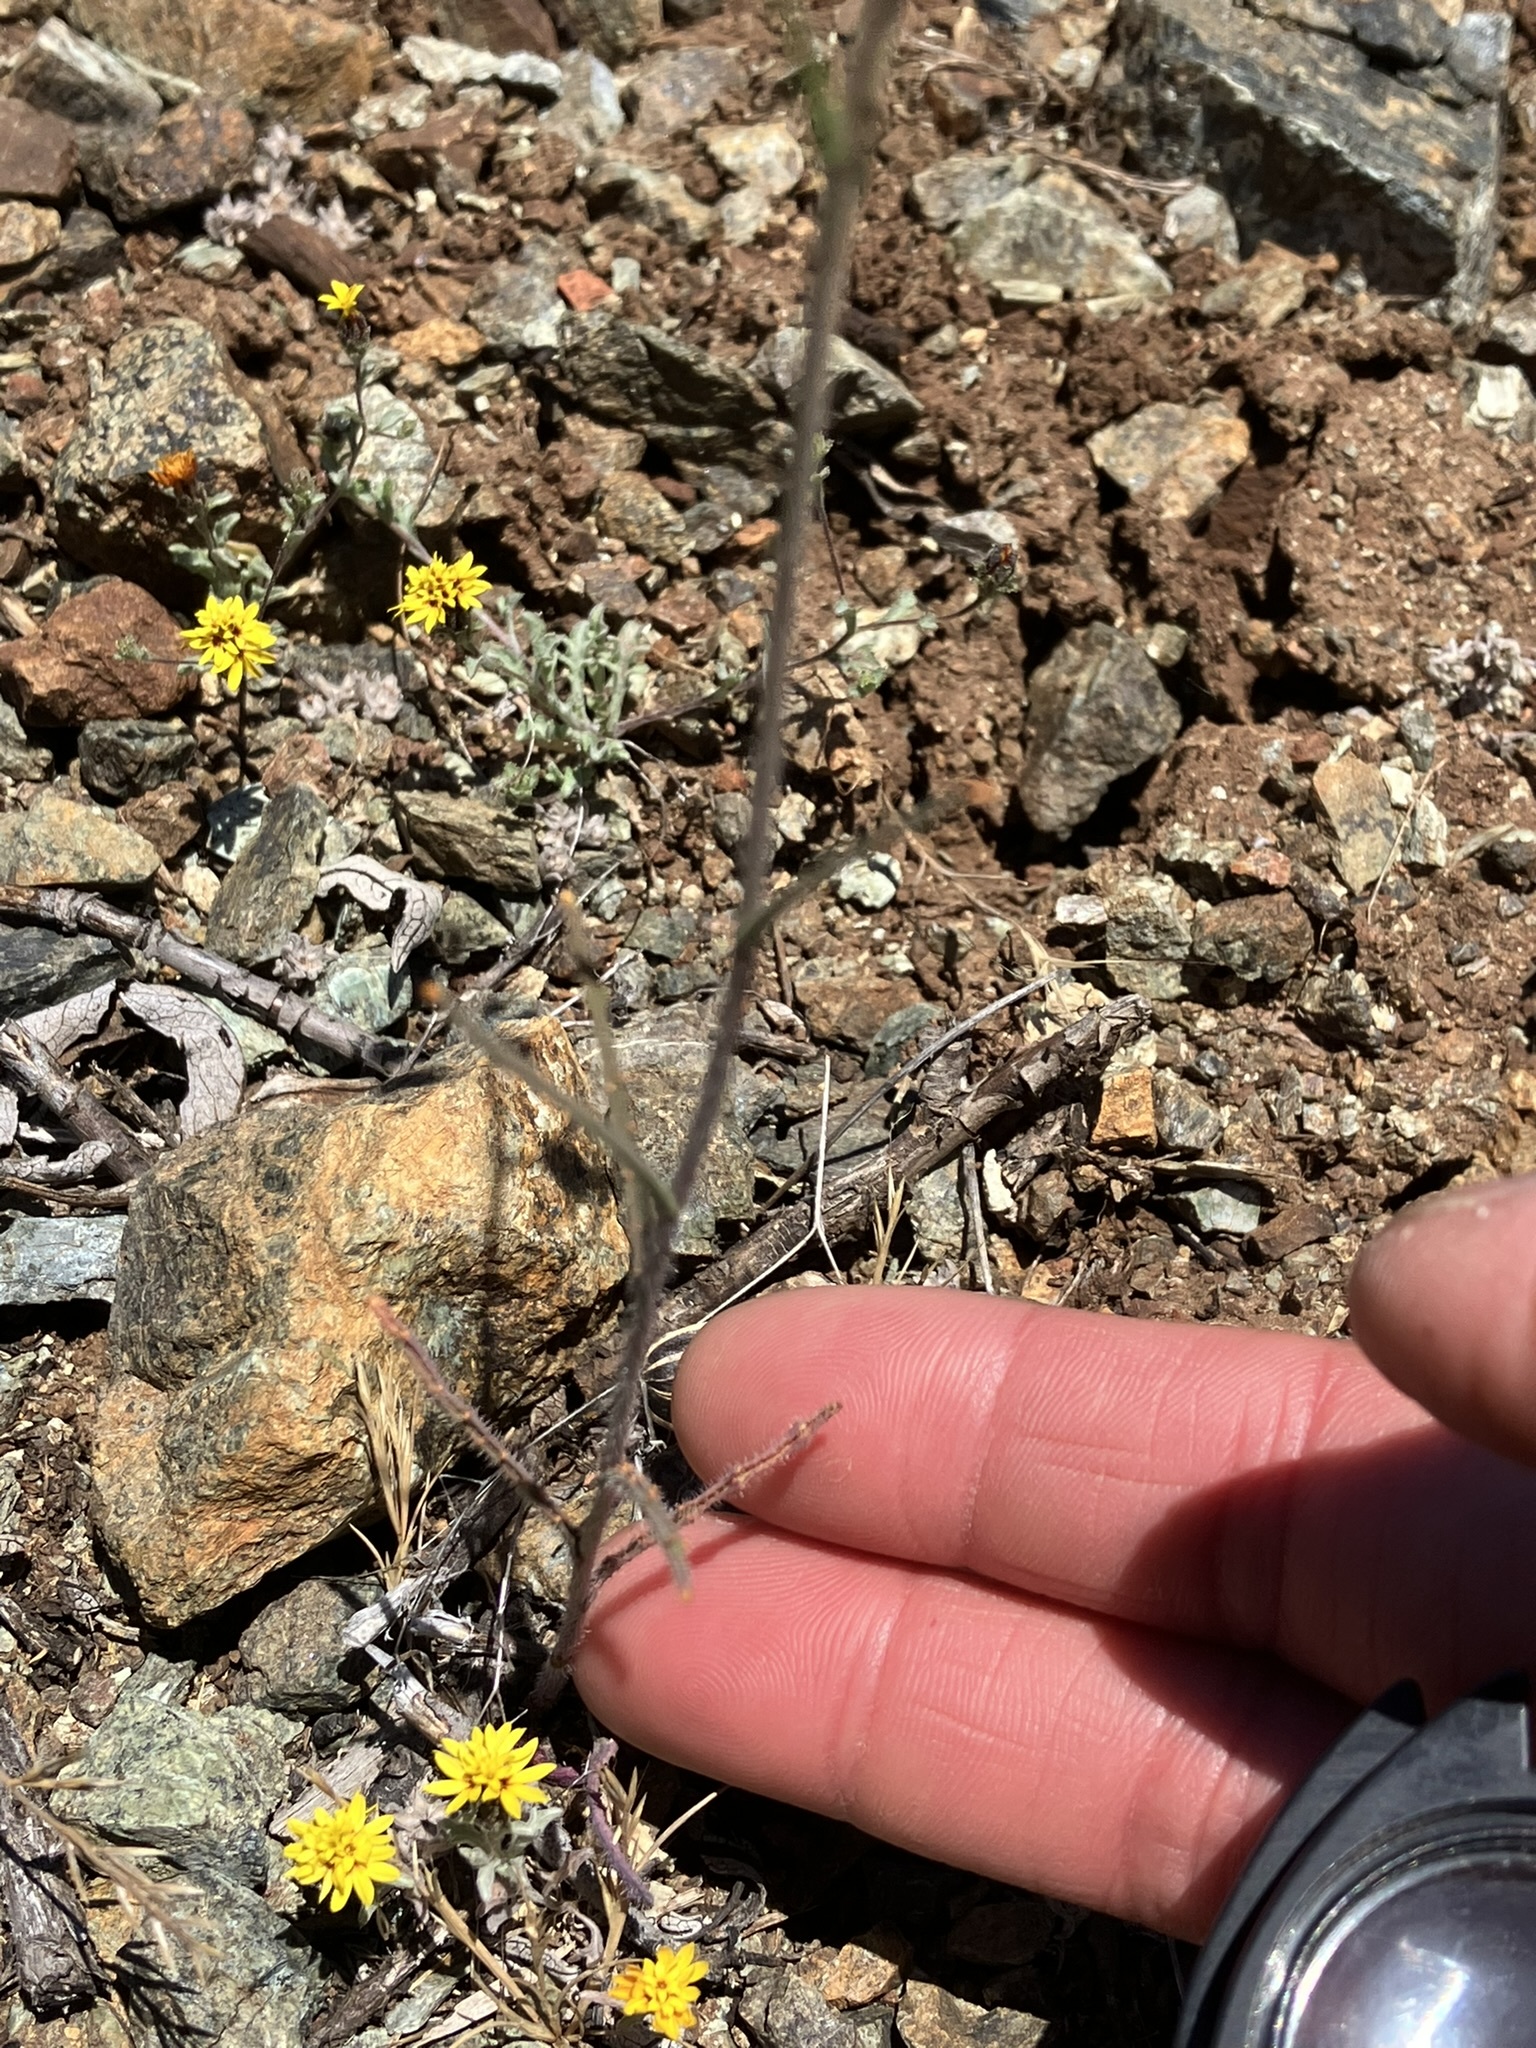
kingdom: Plantae
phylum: Tracheophyta
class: Magnoliopsida
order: Brassicales
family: Brassicaceae
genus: Streptanthus
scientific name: Streptanthus glandulosus
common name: Jewel-flower
